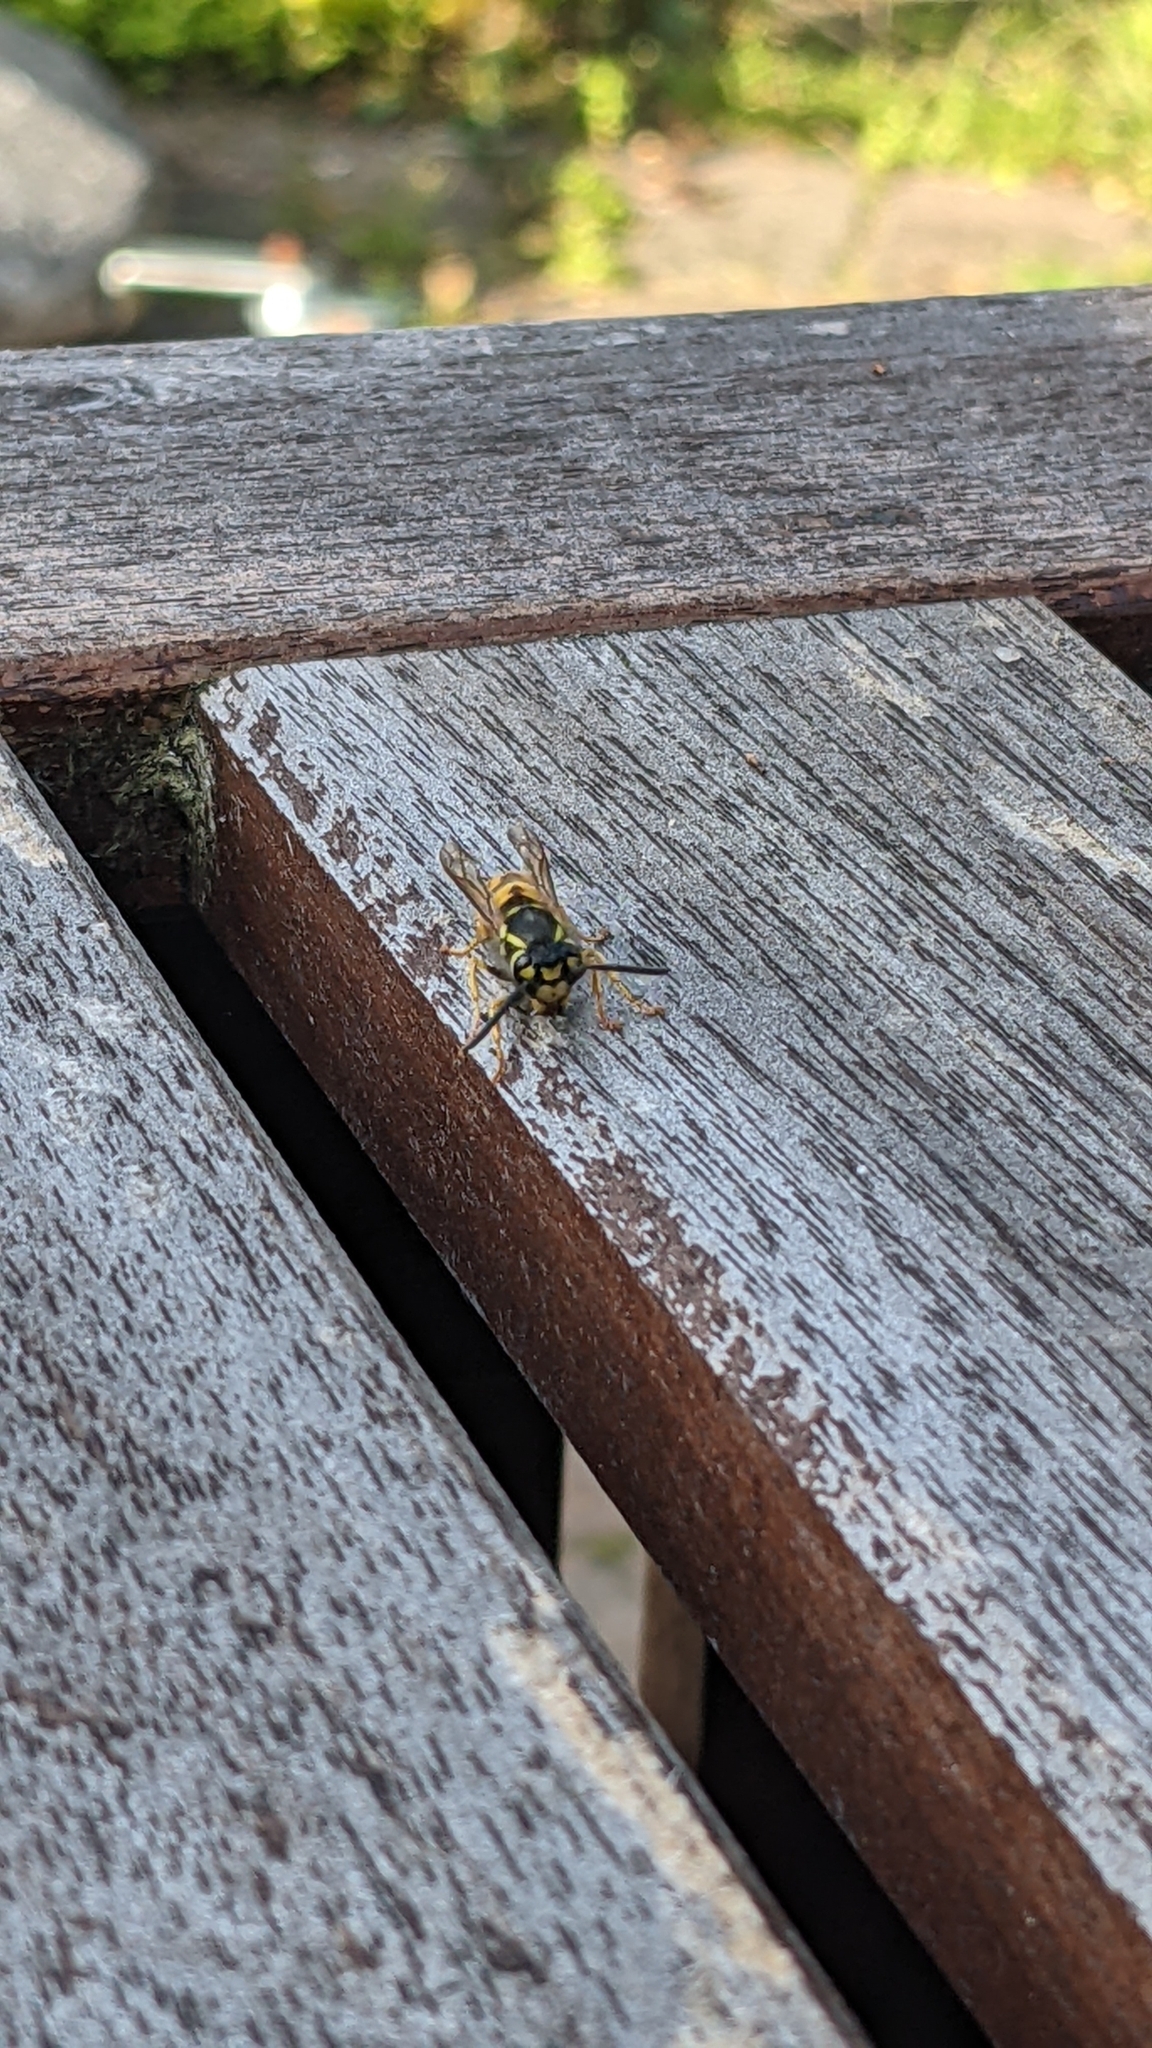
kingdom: Animalia
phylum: Arthropoda
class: Insecta
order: Hymenoptera
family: Vespidae
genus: Vespula
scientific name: Vespula germanica
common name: German wasp
